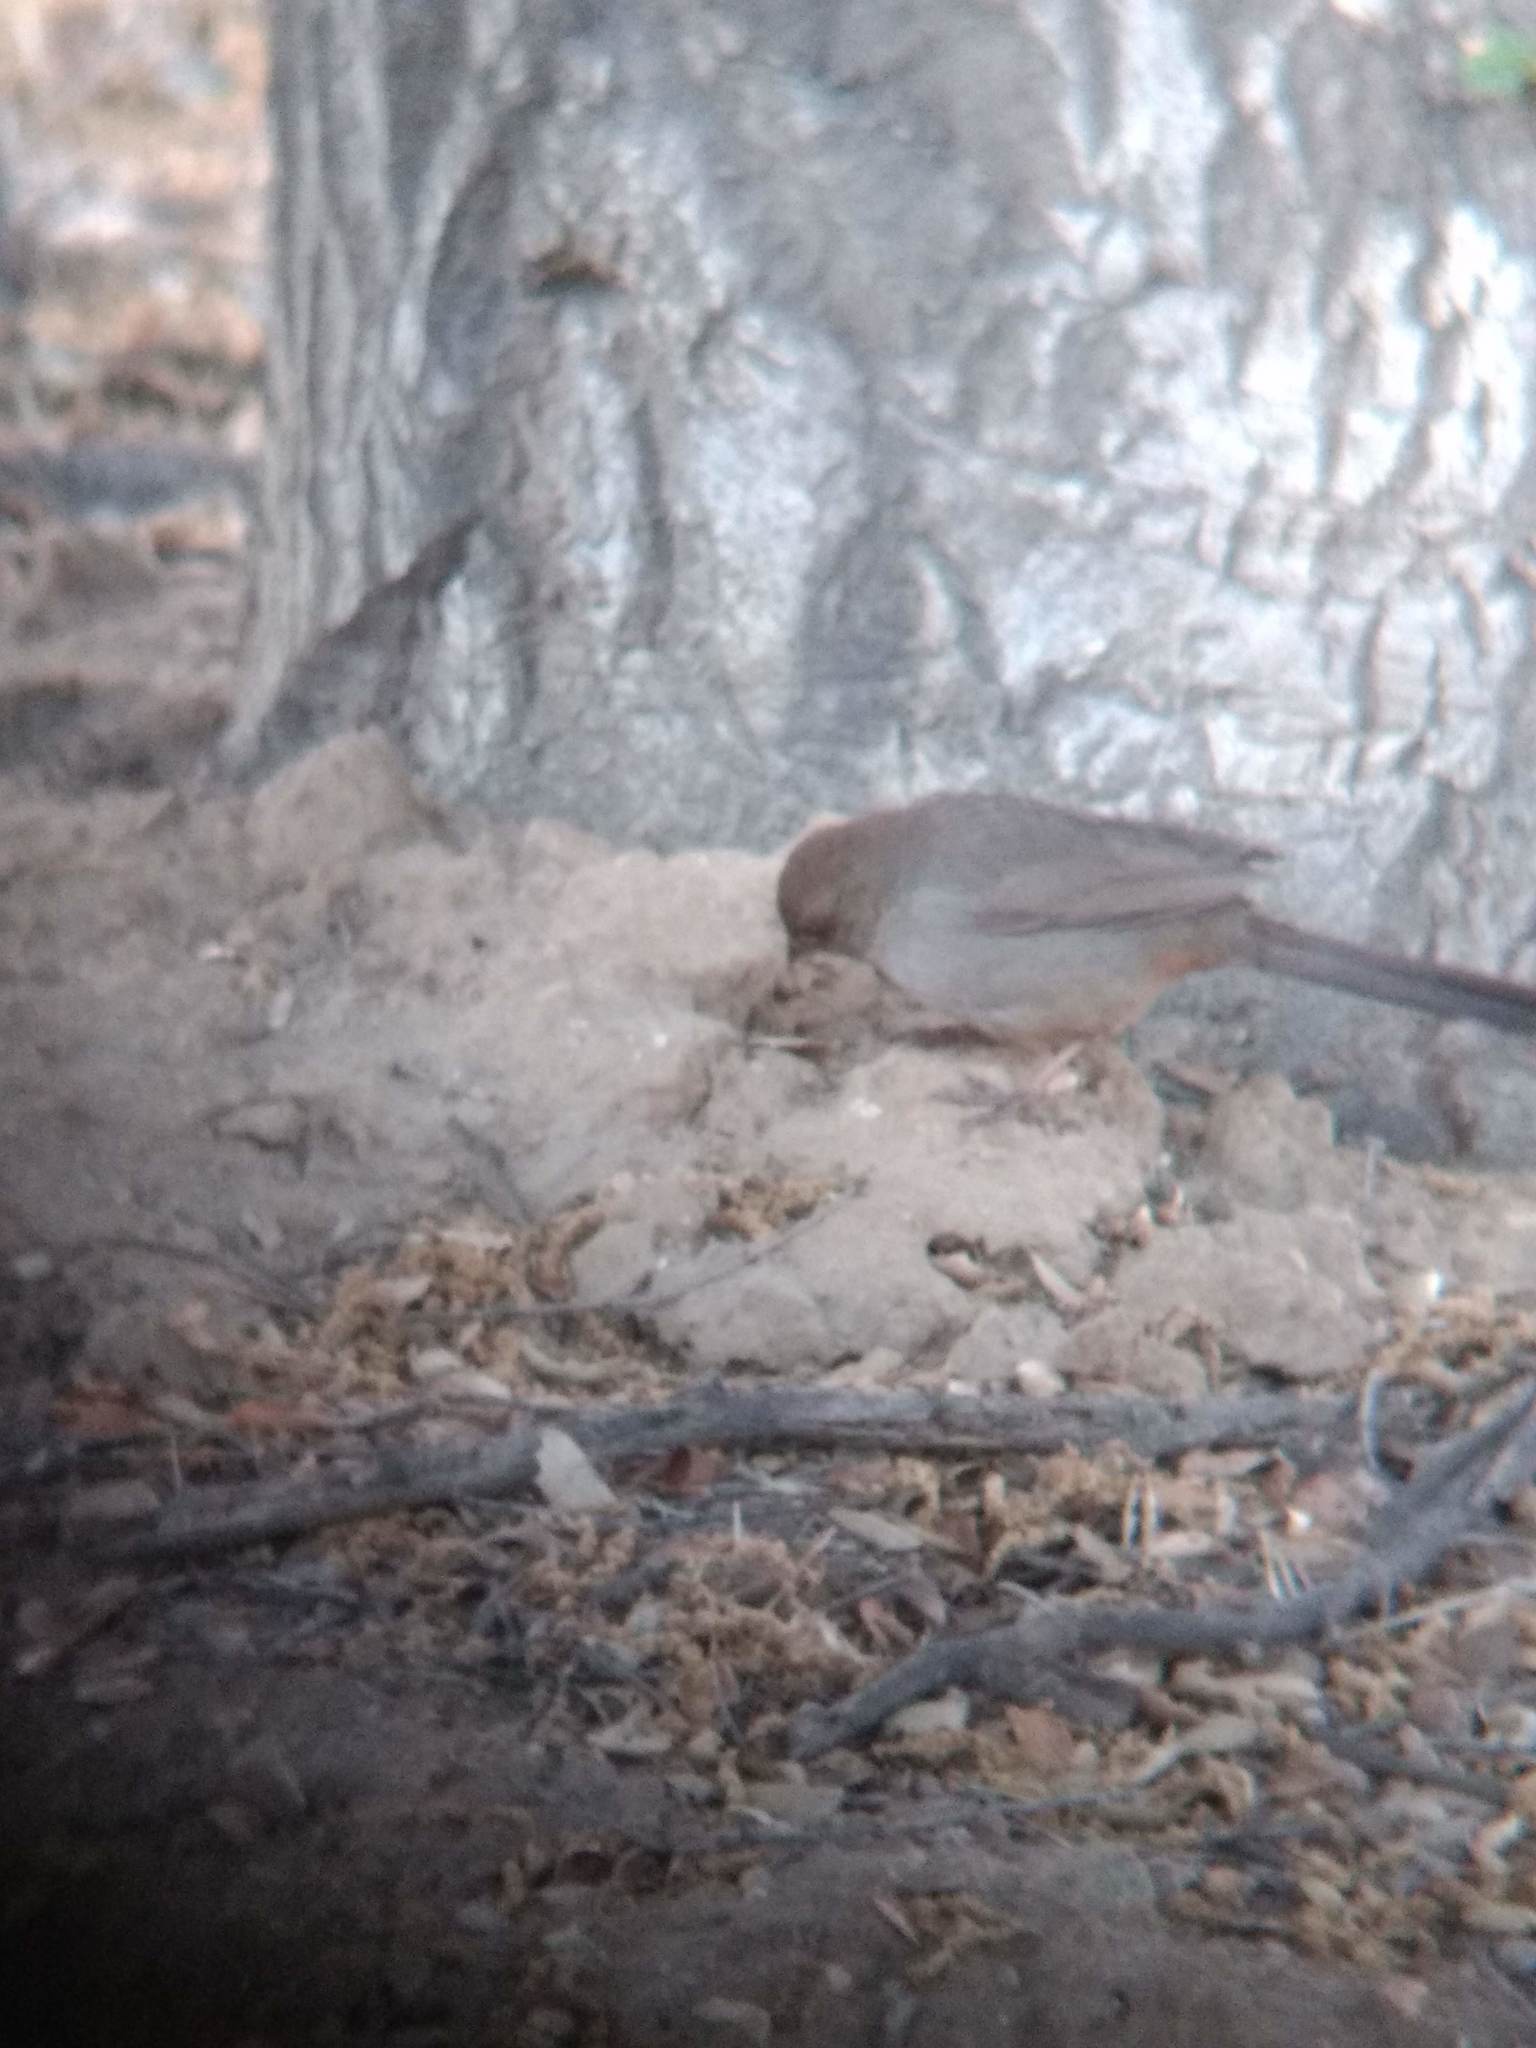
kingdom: Animalia
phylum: Chordata
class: Aves
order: Passeriformes
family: Passerellidae
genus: Melozone
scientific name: Melozone crissalis
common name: California towhee
